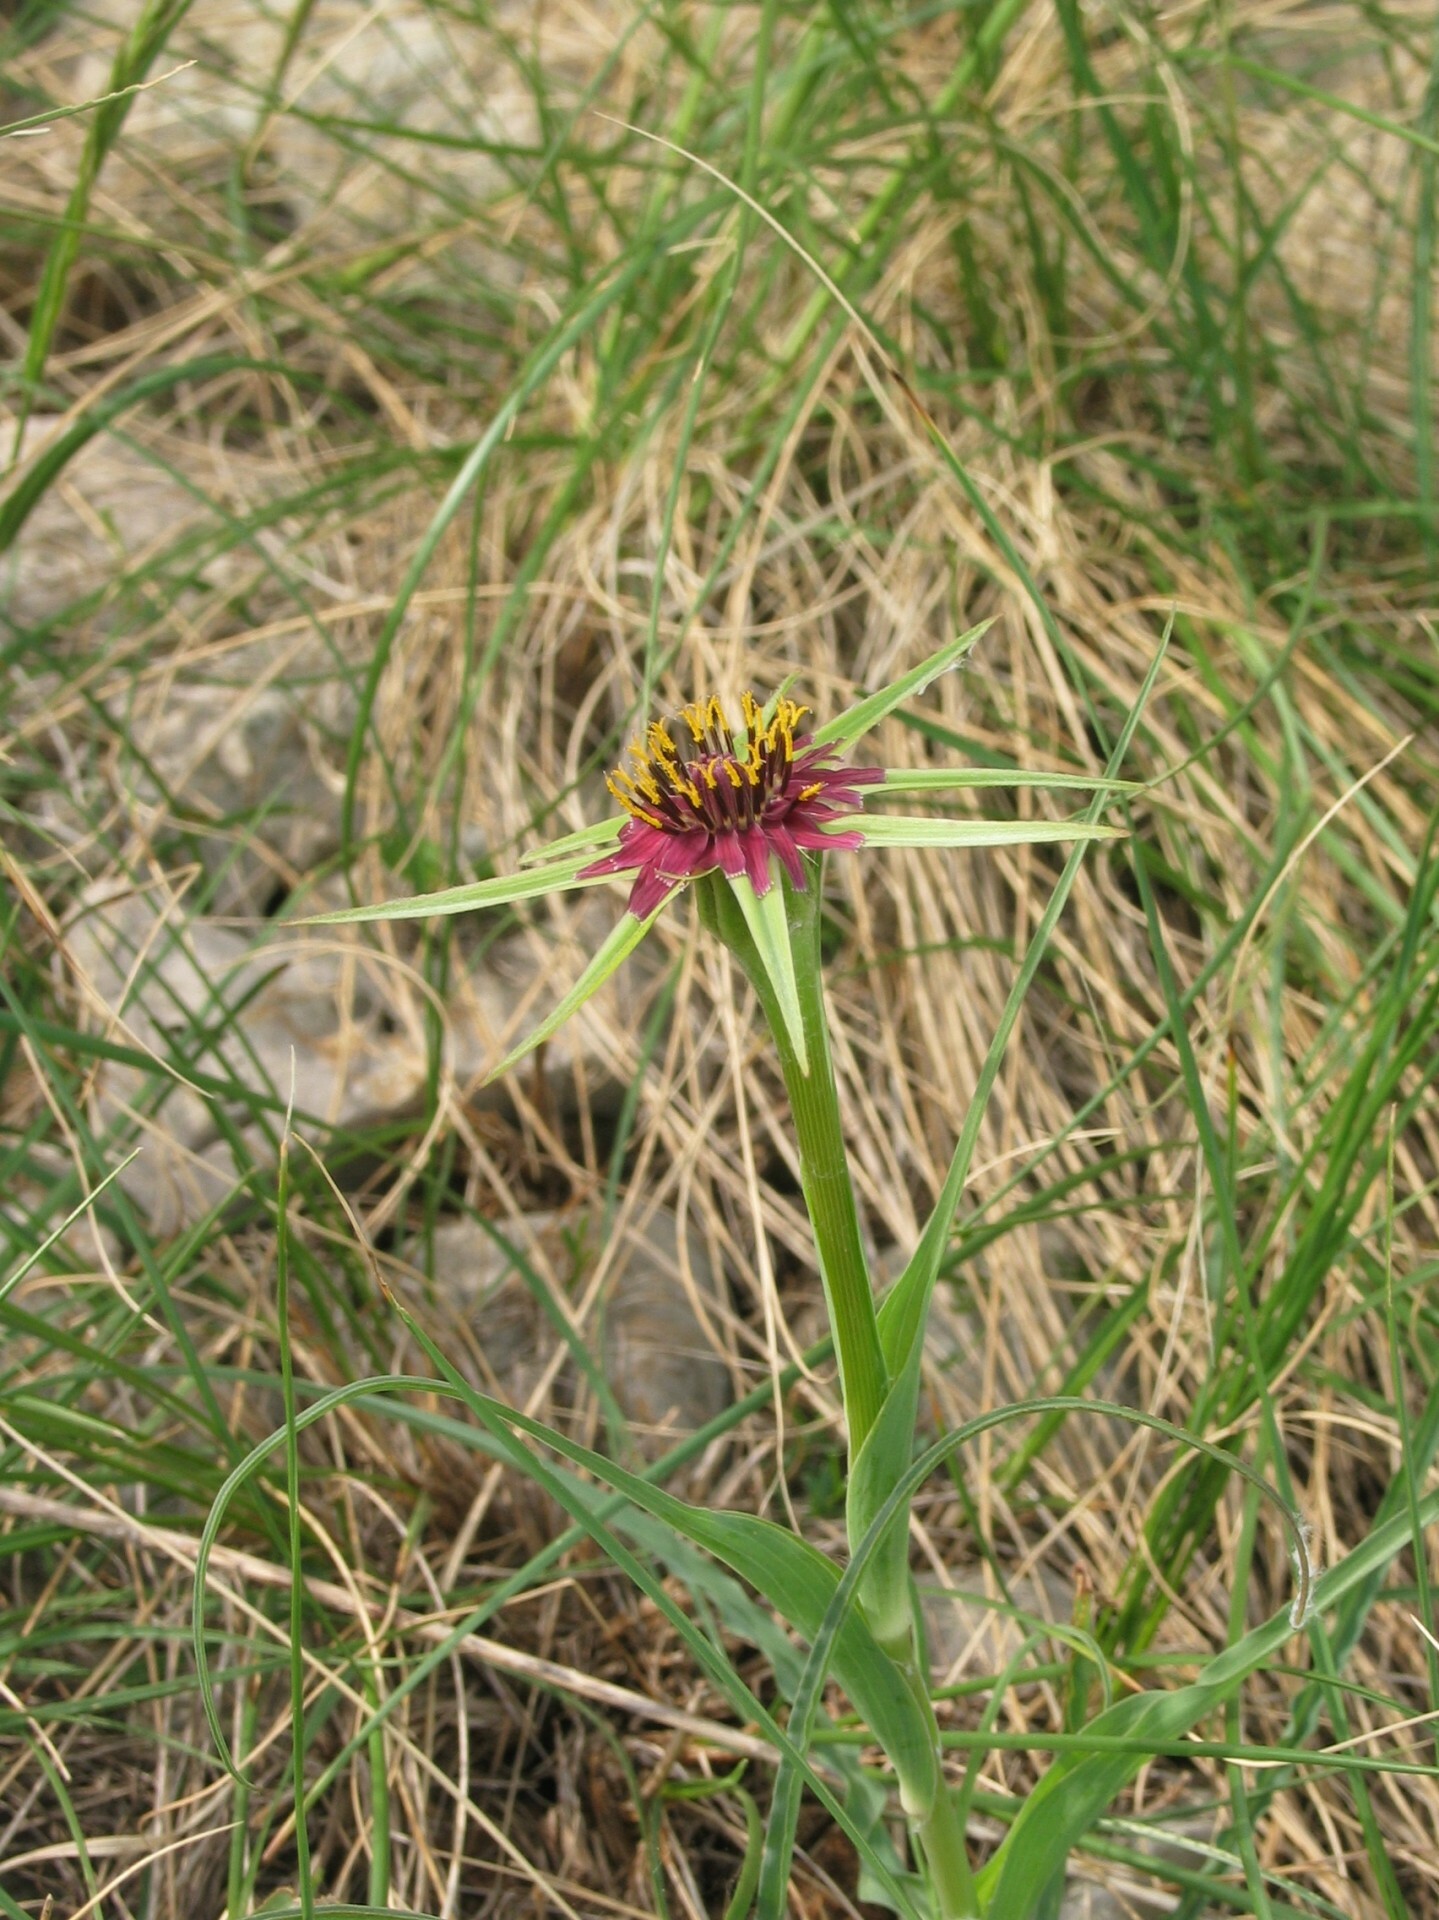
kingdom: Plantae
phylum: Tracheophyta
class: Magnoliopsida
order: Asterales
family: Asteraceae
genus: Tragopogon
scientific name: Tragopogon porrifolius
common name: Salsify
